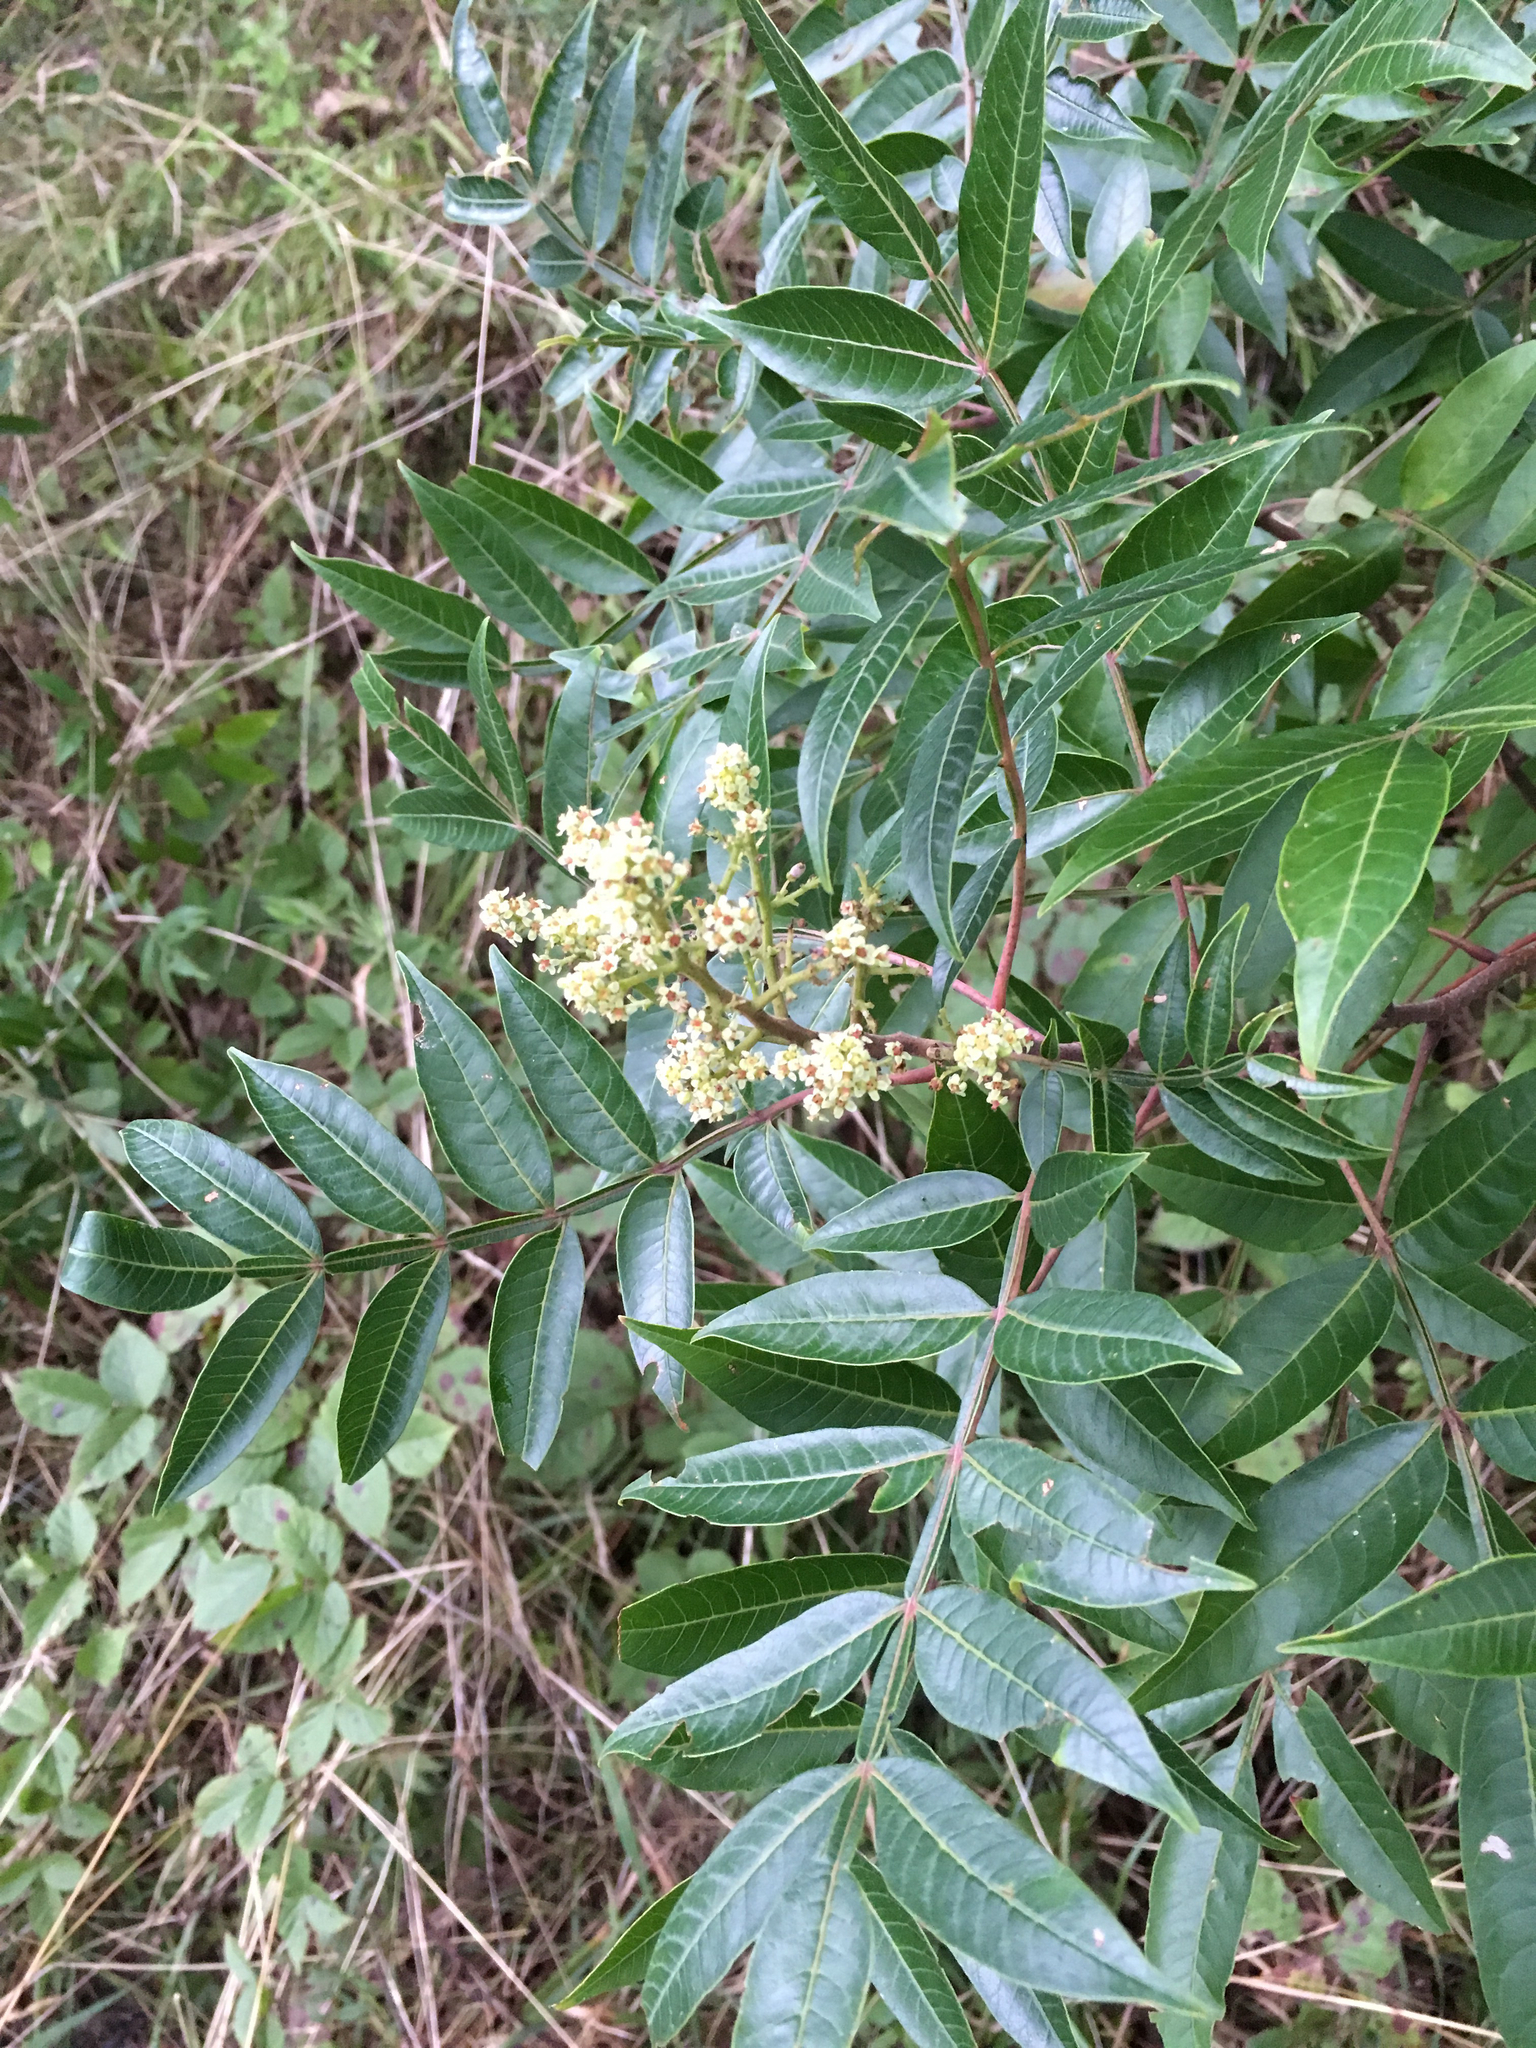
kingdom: Plantae
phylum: Tracheophyta
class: Magnoliopsida
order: Sapindales
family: Anacardiaceae
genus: Rhus
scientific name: Rhus copallina
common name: Shining sumac
